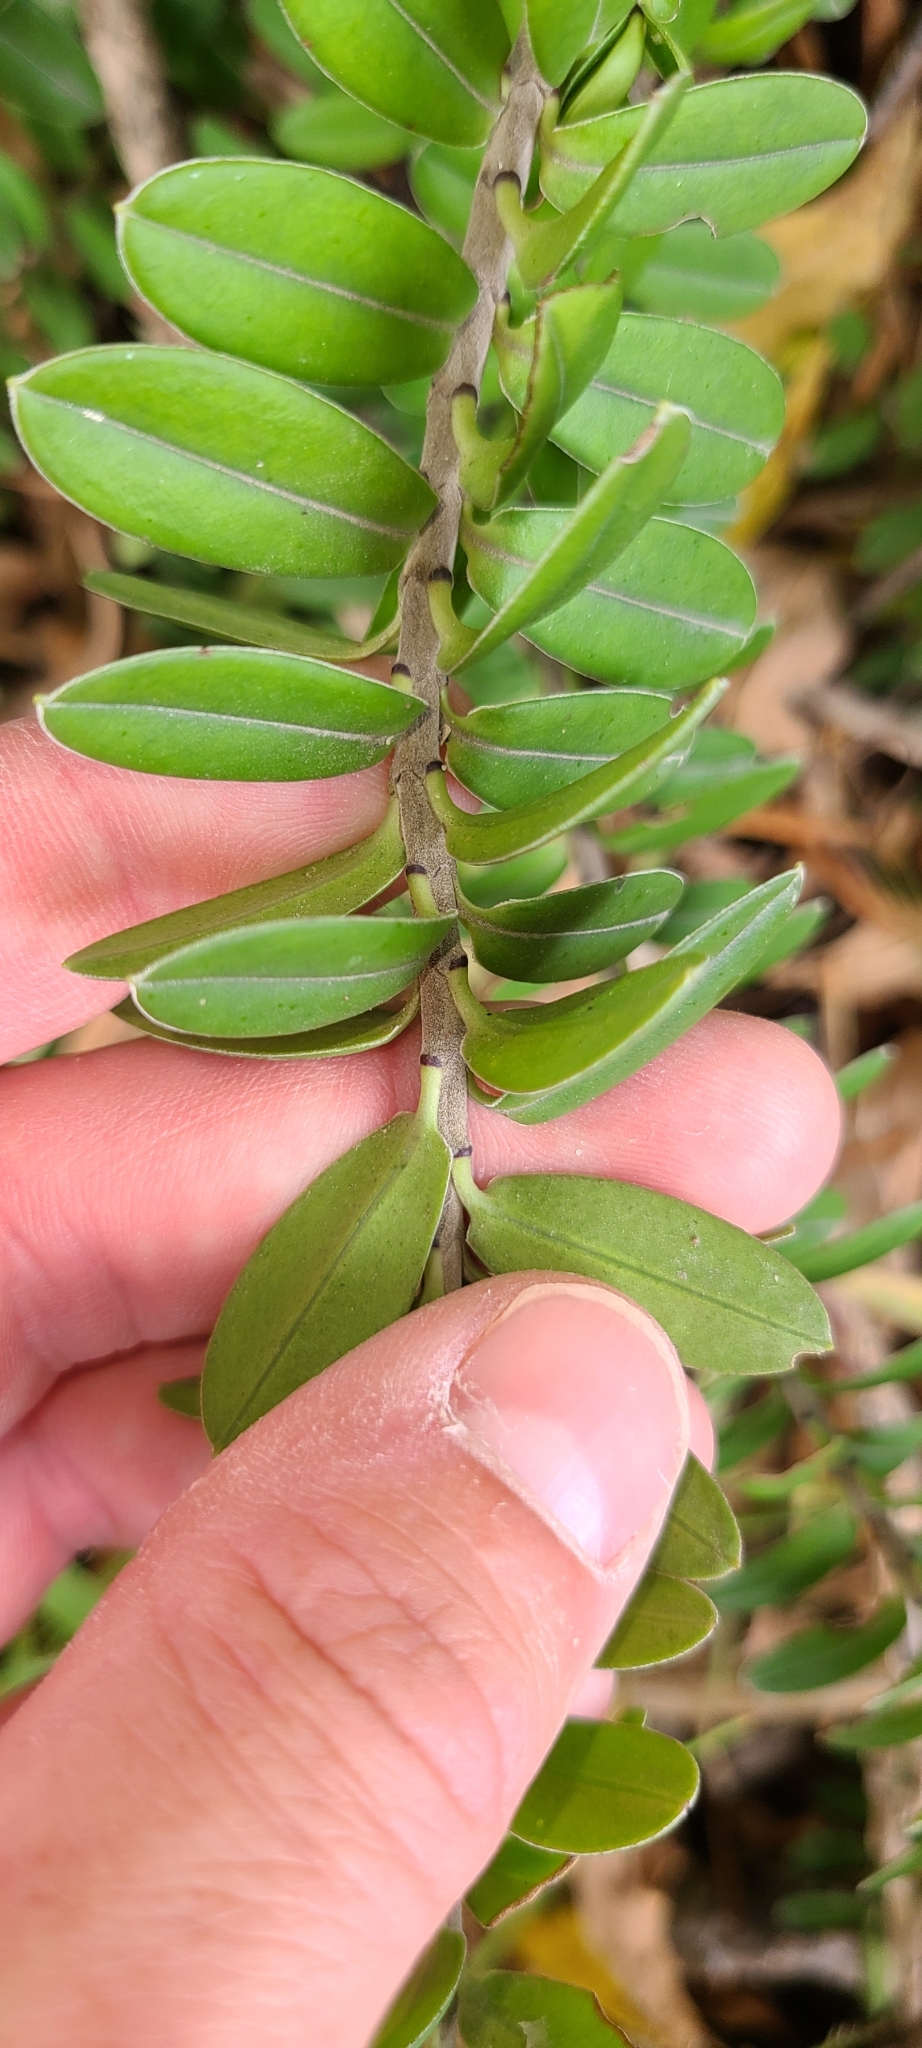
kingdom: Plantae
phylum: Tracheophyta
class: Magnoliopsida
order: Lamiales
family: Plantaginaceae
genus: Veronica
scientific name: Veronica elliptica
